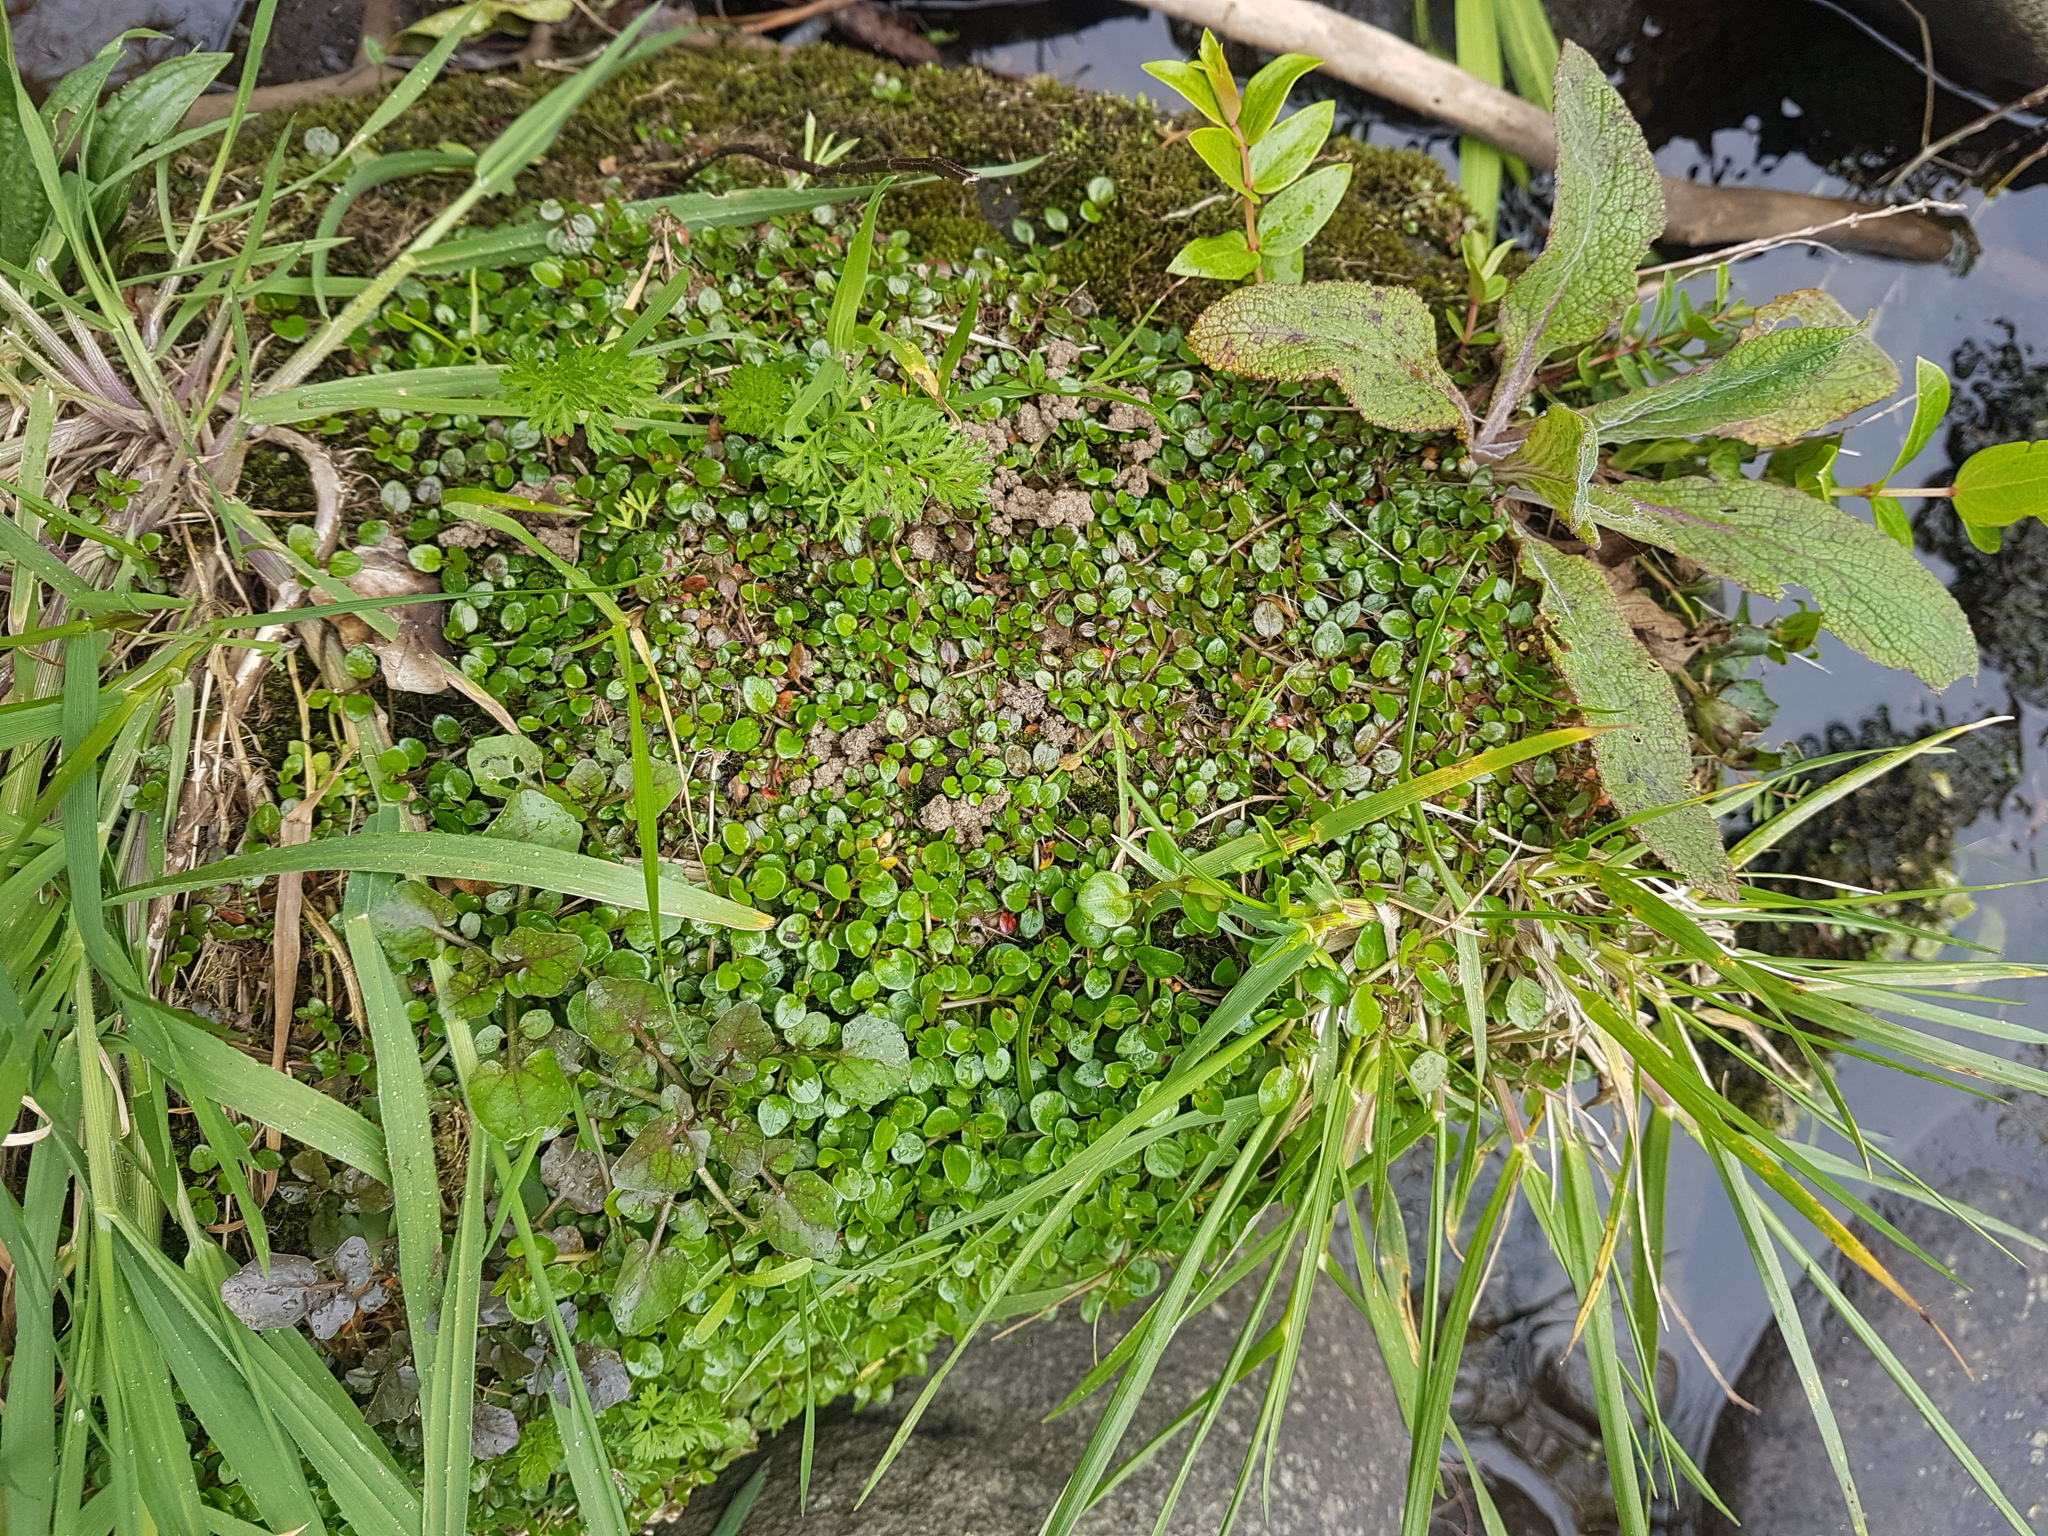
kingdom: Plantae
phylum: Tracheophyta
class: Magnoliopsida
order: Myrtales
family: Onagraceae
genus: Epilobium
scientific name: Epilobium brunnescens
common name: New zealand willowherb
